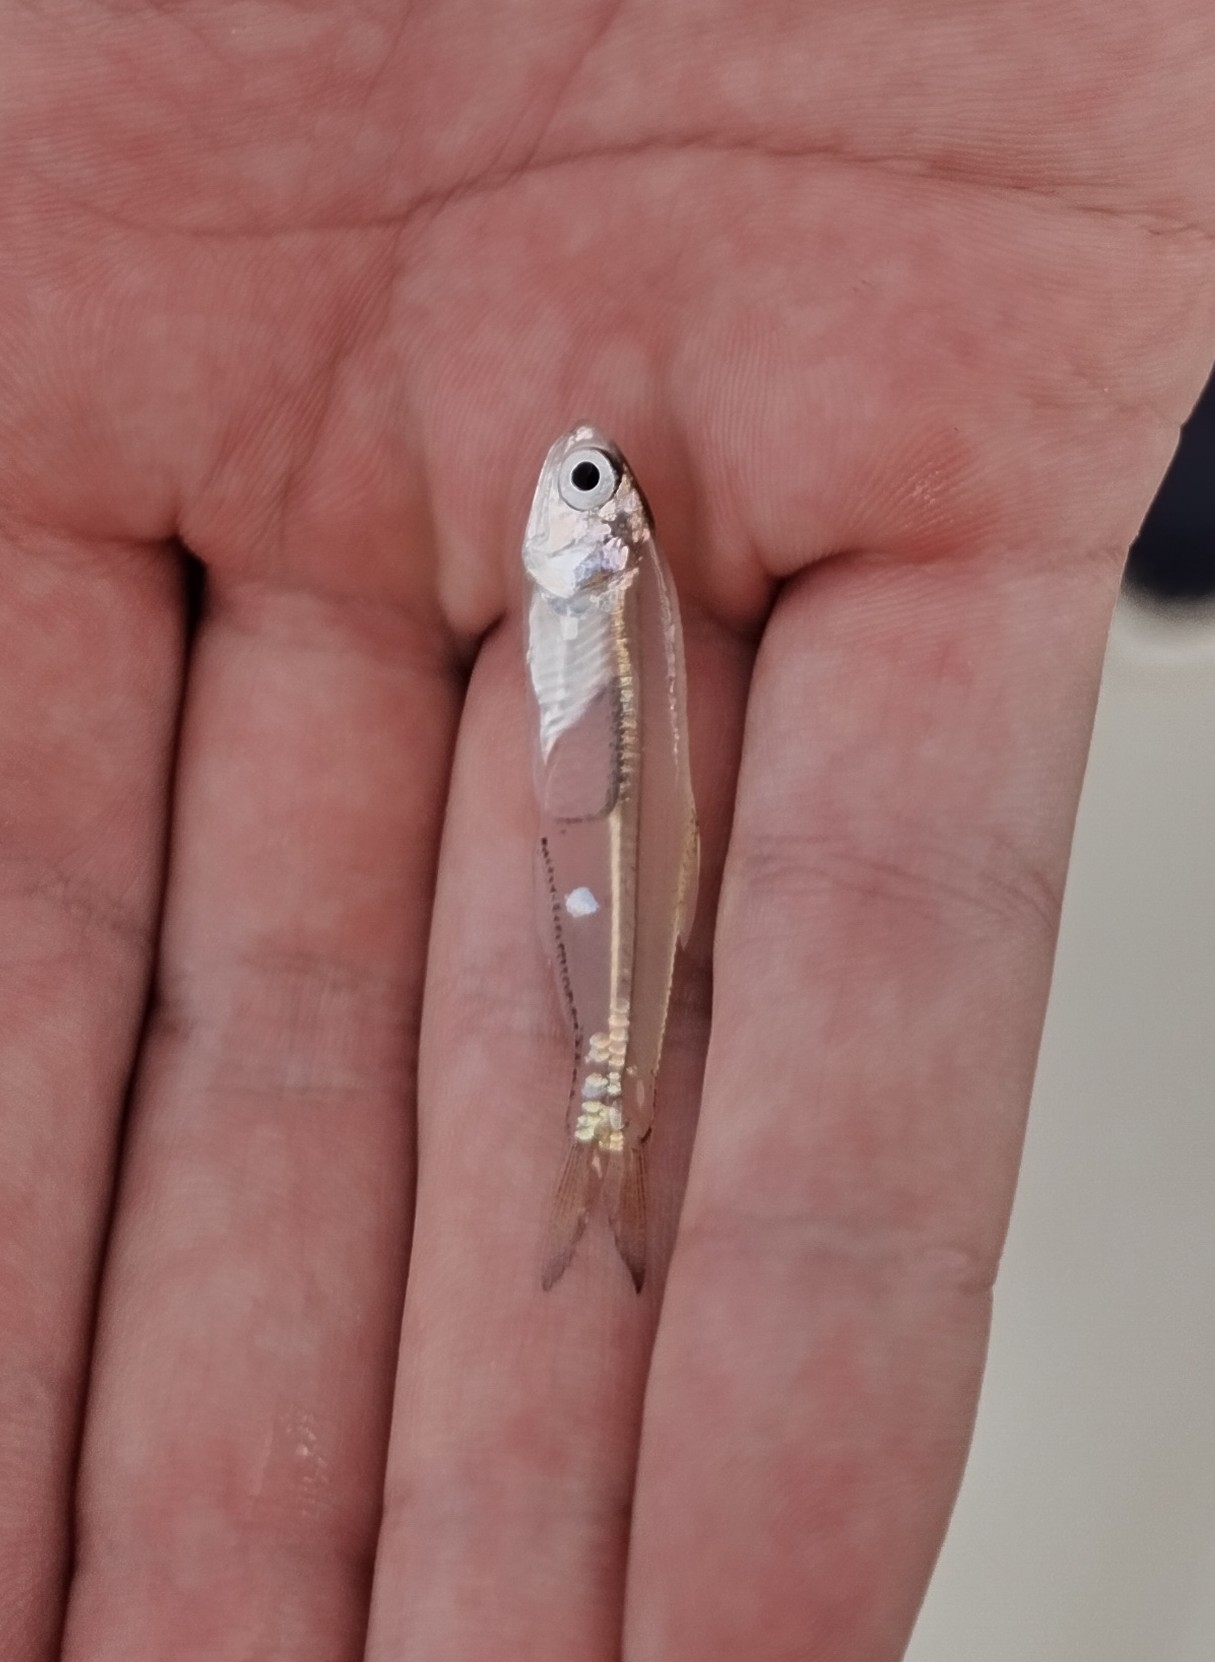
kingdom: Animalia
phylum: Chordata
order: Clupeiformes
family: Engraulidae
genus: Anchoa
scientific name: Anchoa mitchilli
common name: Bay anchovy
